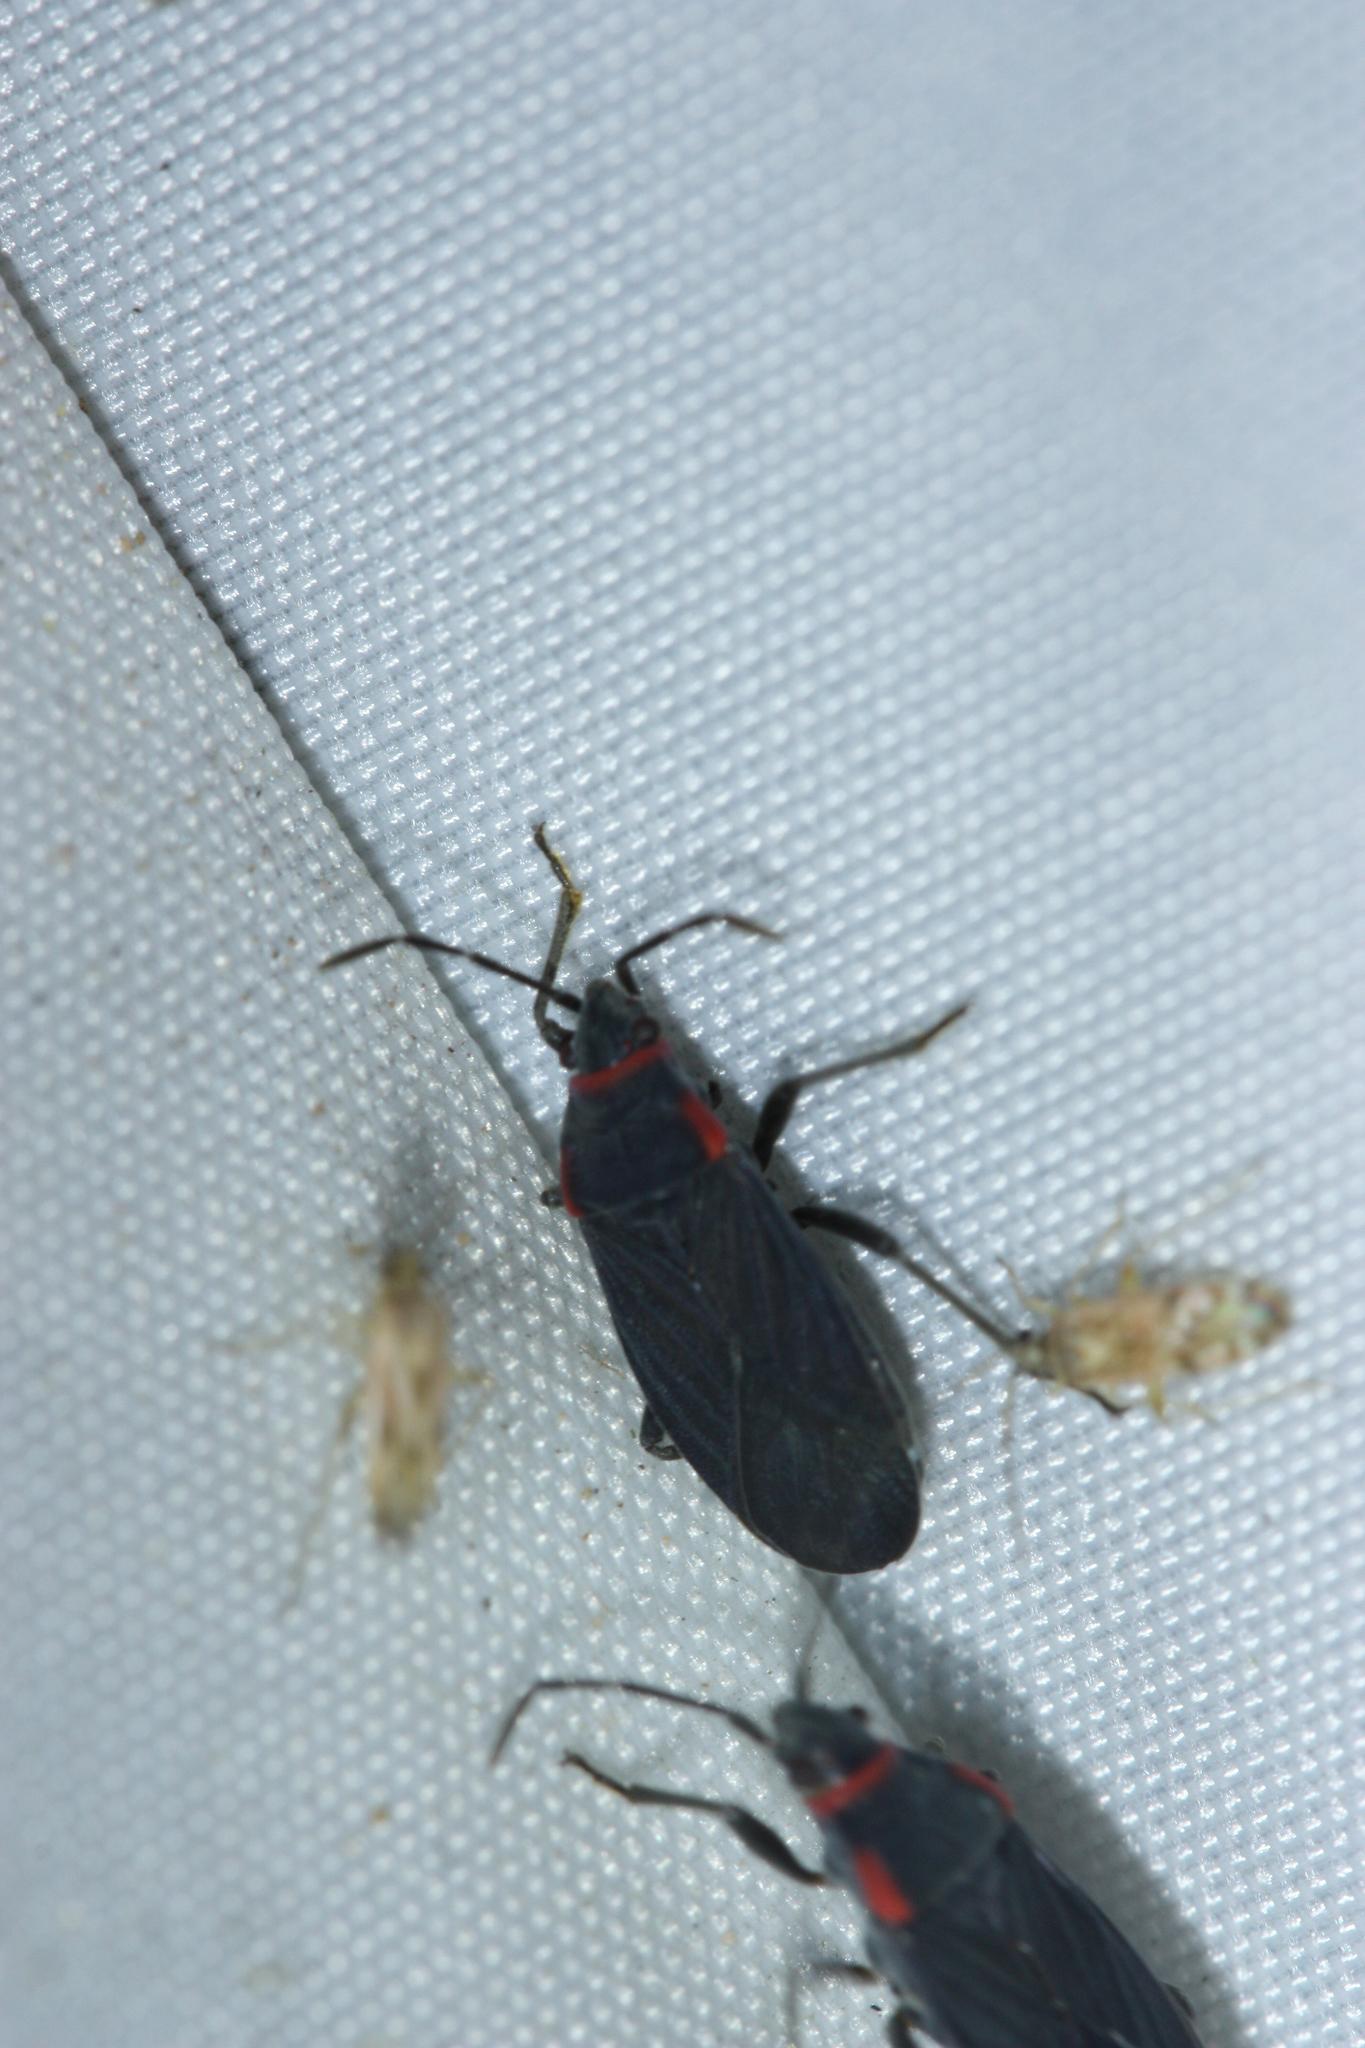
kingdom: Animalia
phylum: Arthropoda
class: Insecta
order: Hemiptera
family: Lygaeidae
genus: Melacoryphus
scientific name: Melacoryphus rubicollis
